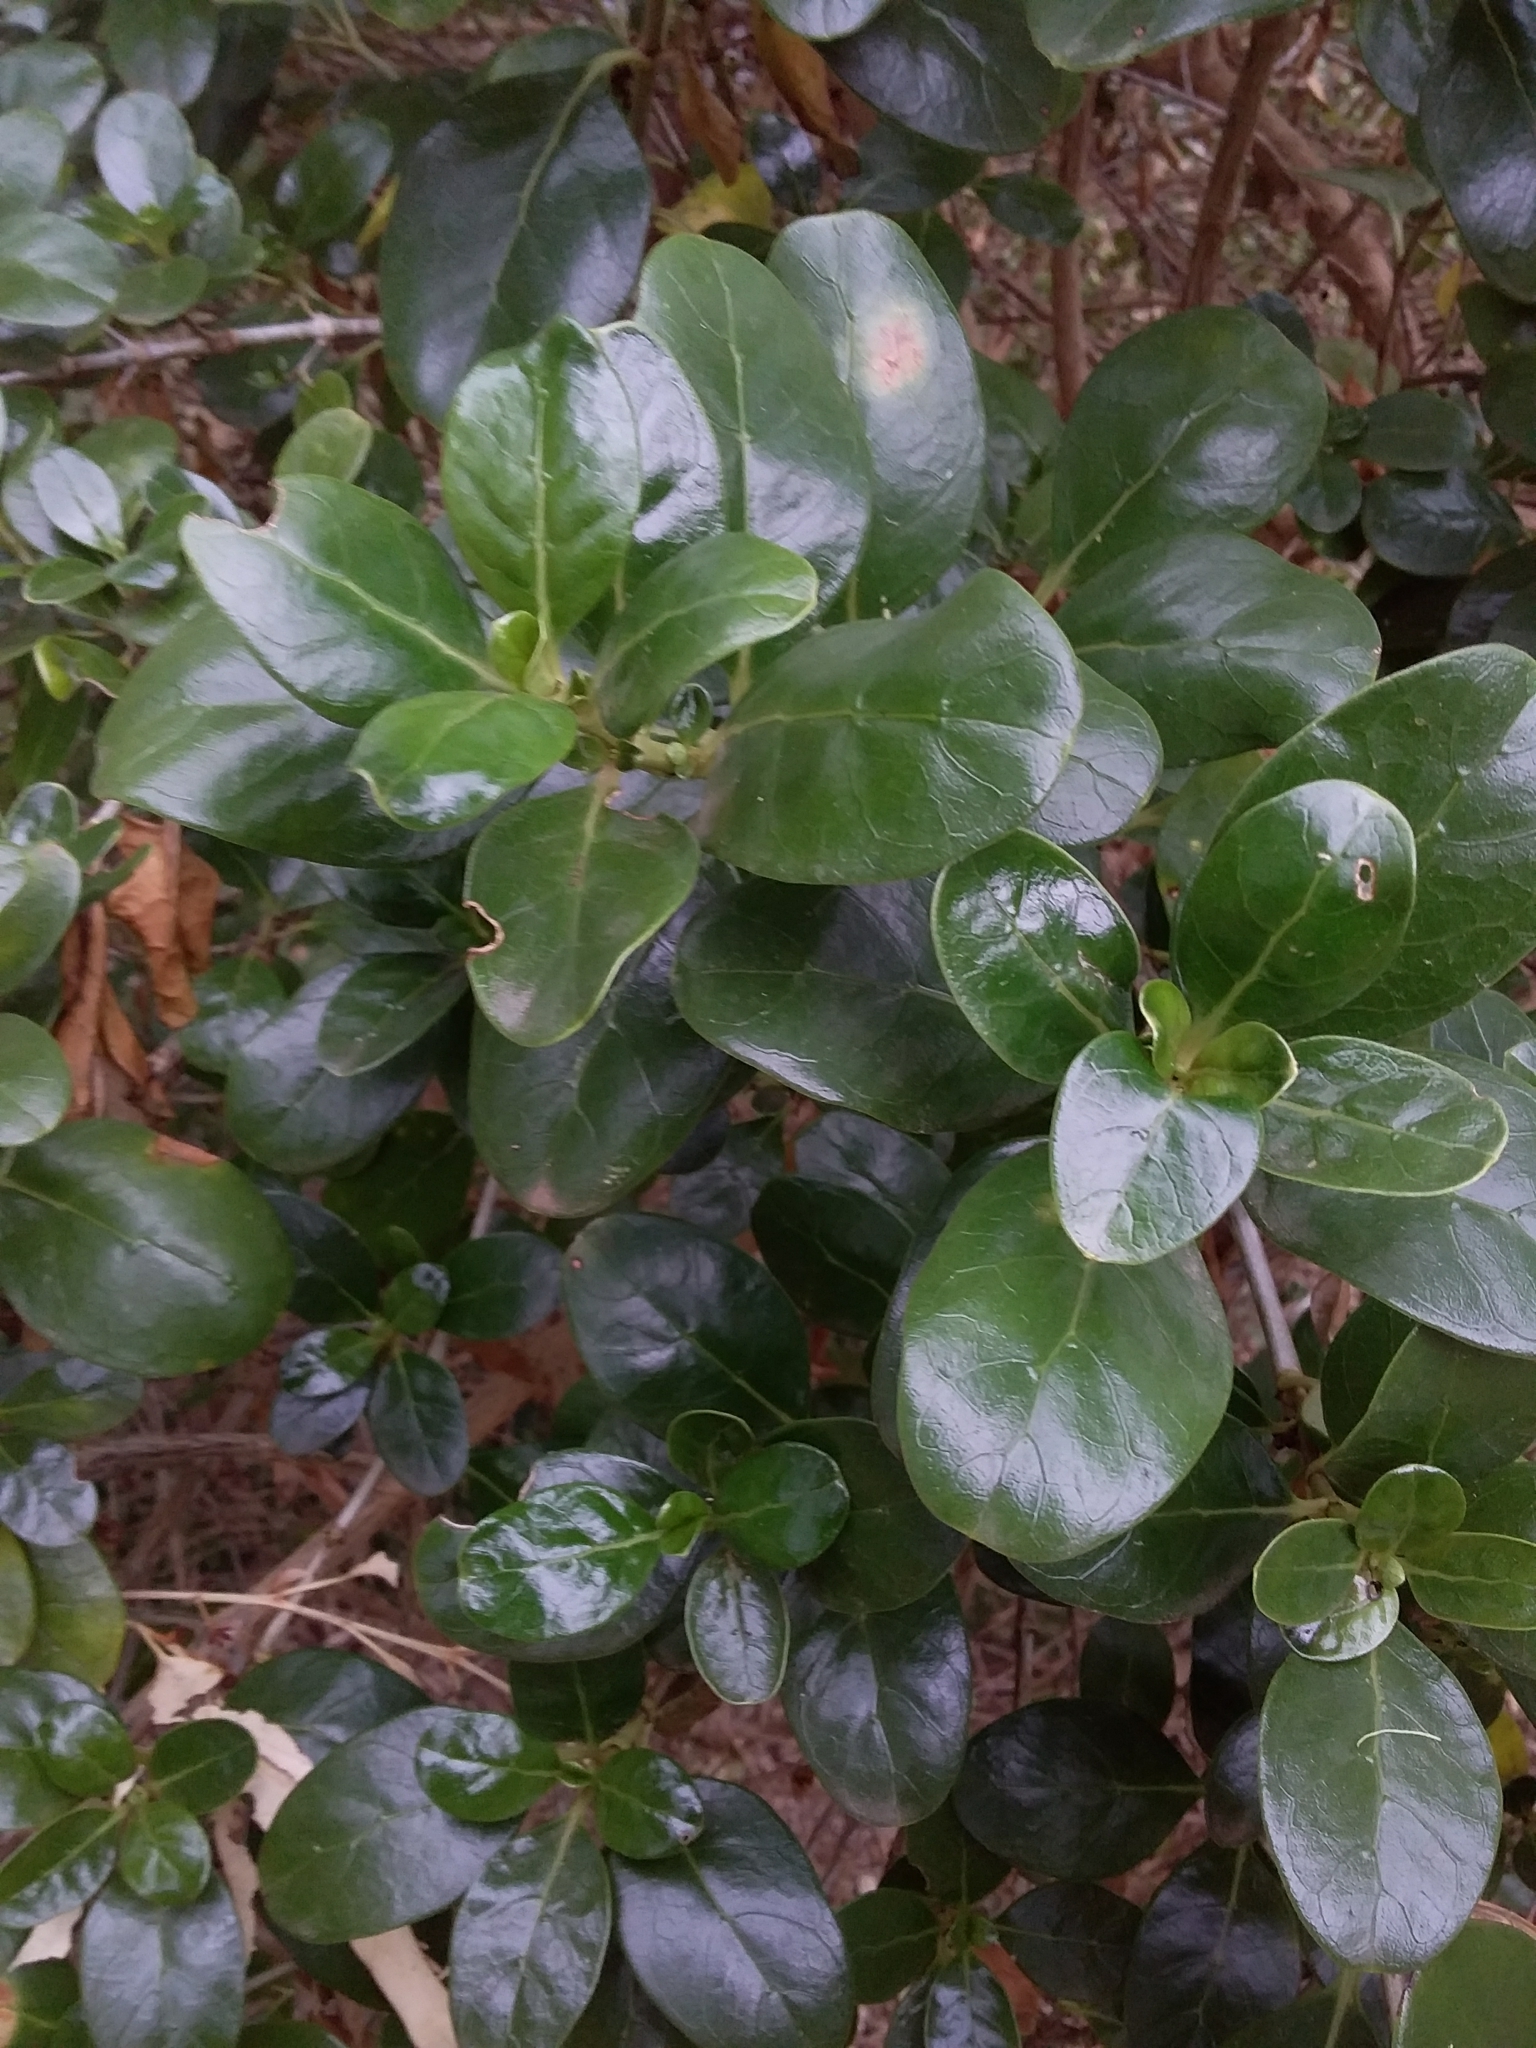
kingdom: Plantae
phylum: Tracheophyta
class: Magnoliopsida
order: Gentianales
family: Rubiaceae
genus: Coprosma
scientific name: Coprosma repens
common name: Tree bedstraw
